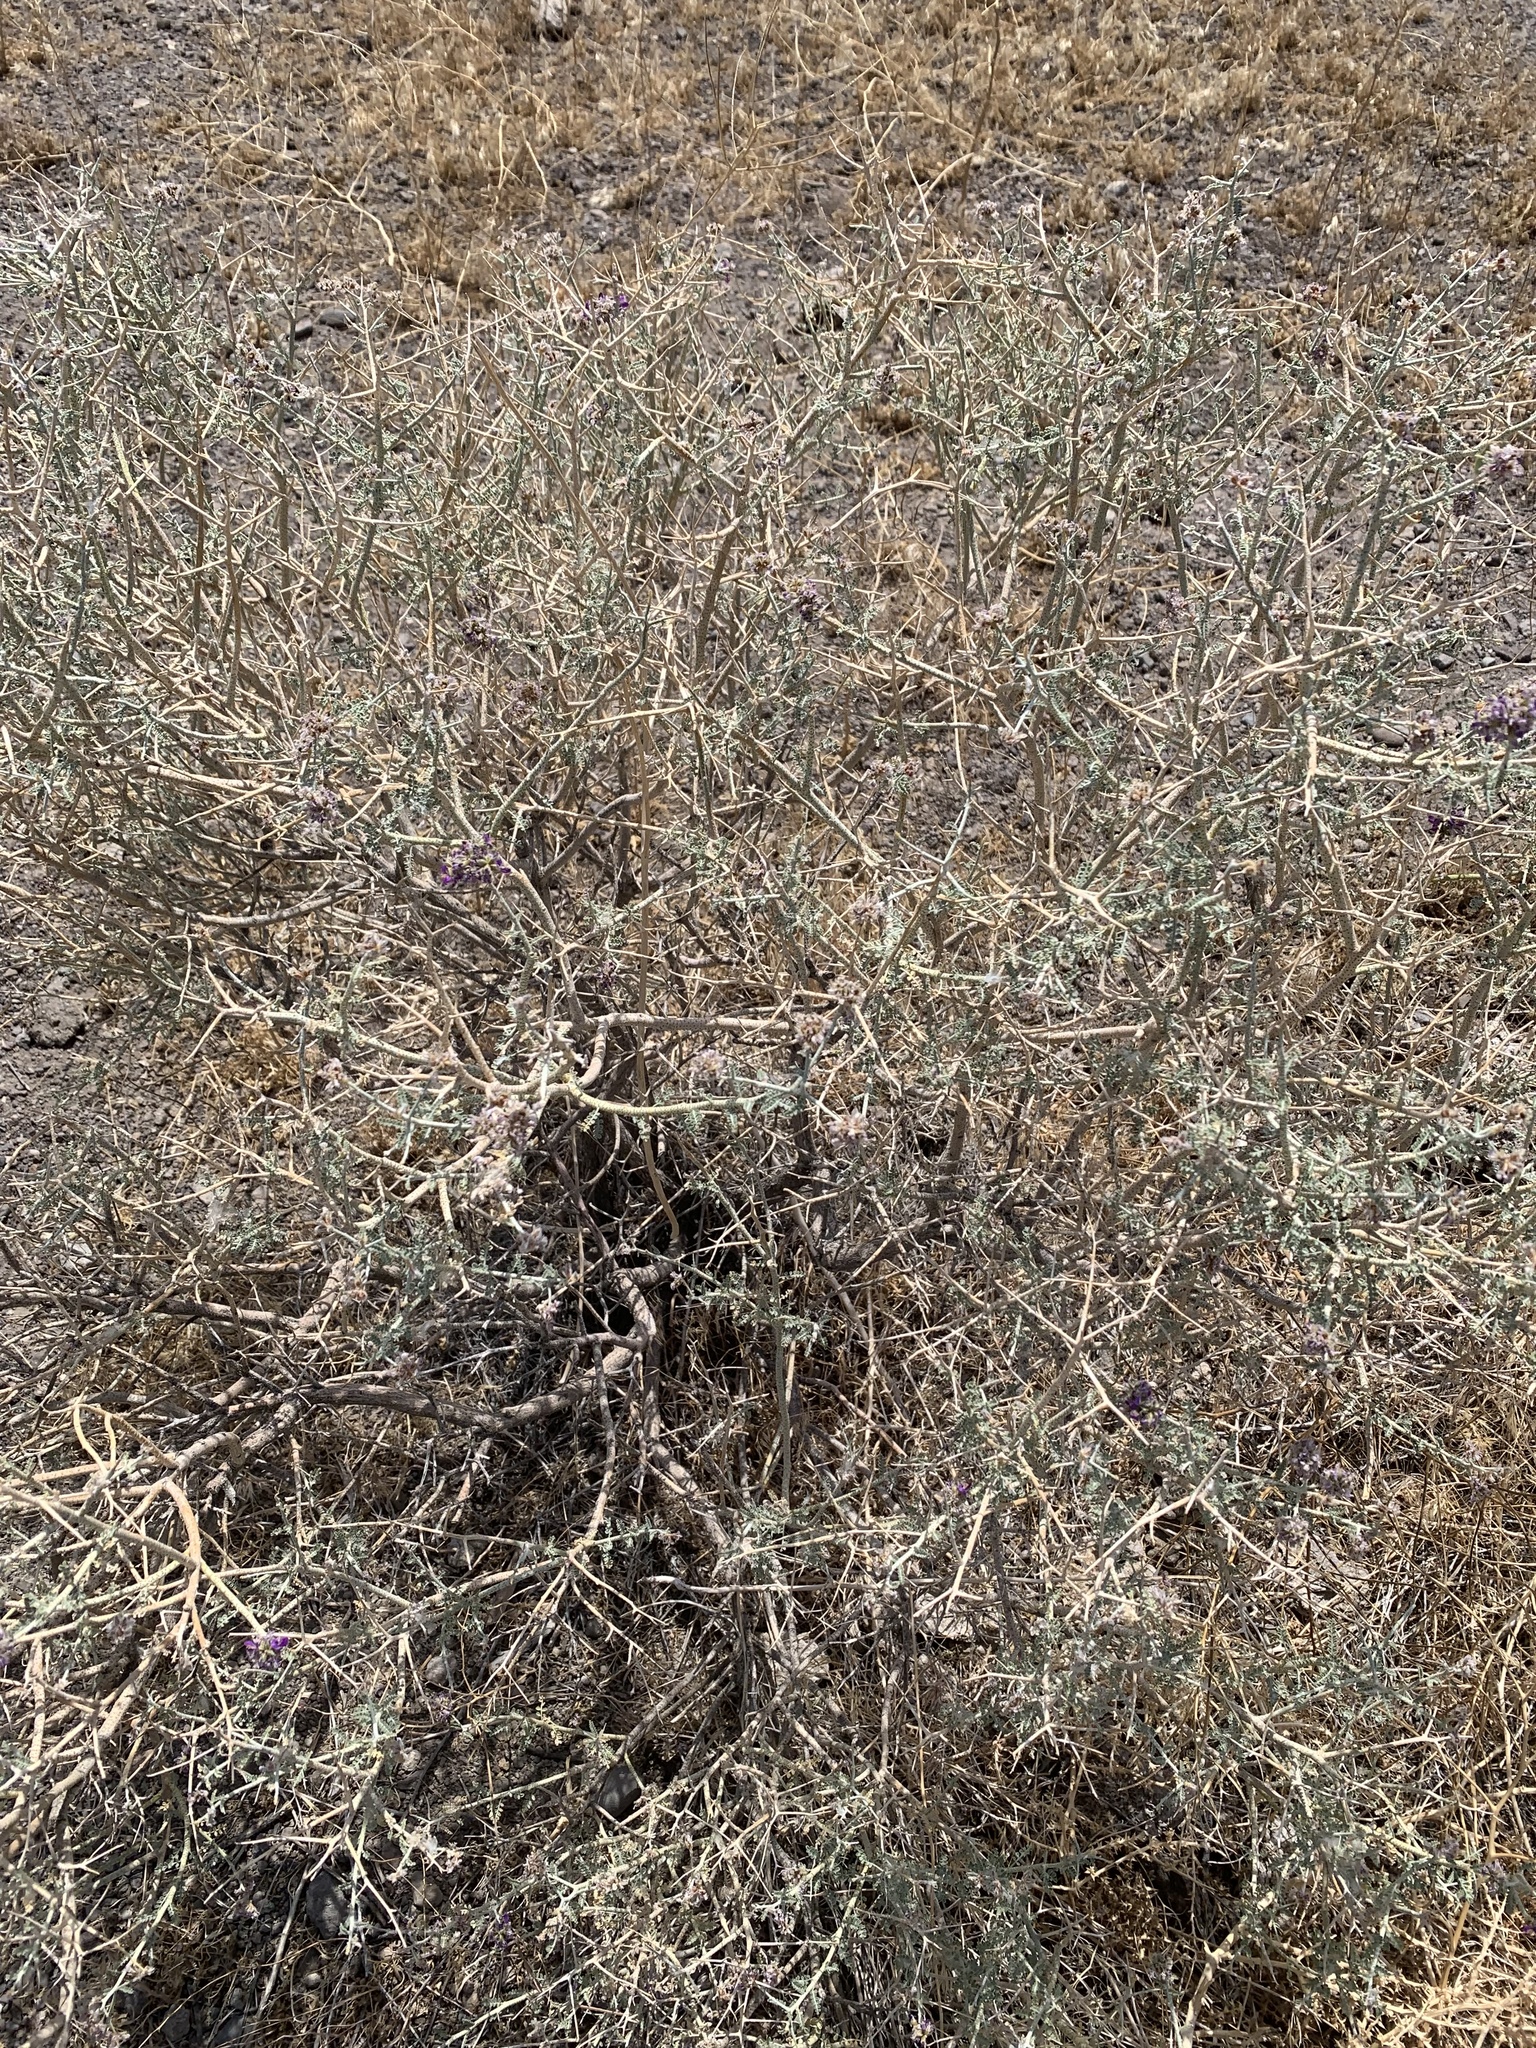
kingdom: Plantae
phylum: Tracheophyta
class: Magnoliopsida
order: Fabales
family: Fabaceae
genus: Psorothamnus
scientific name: Psorothamnus polydenius
